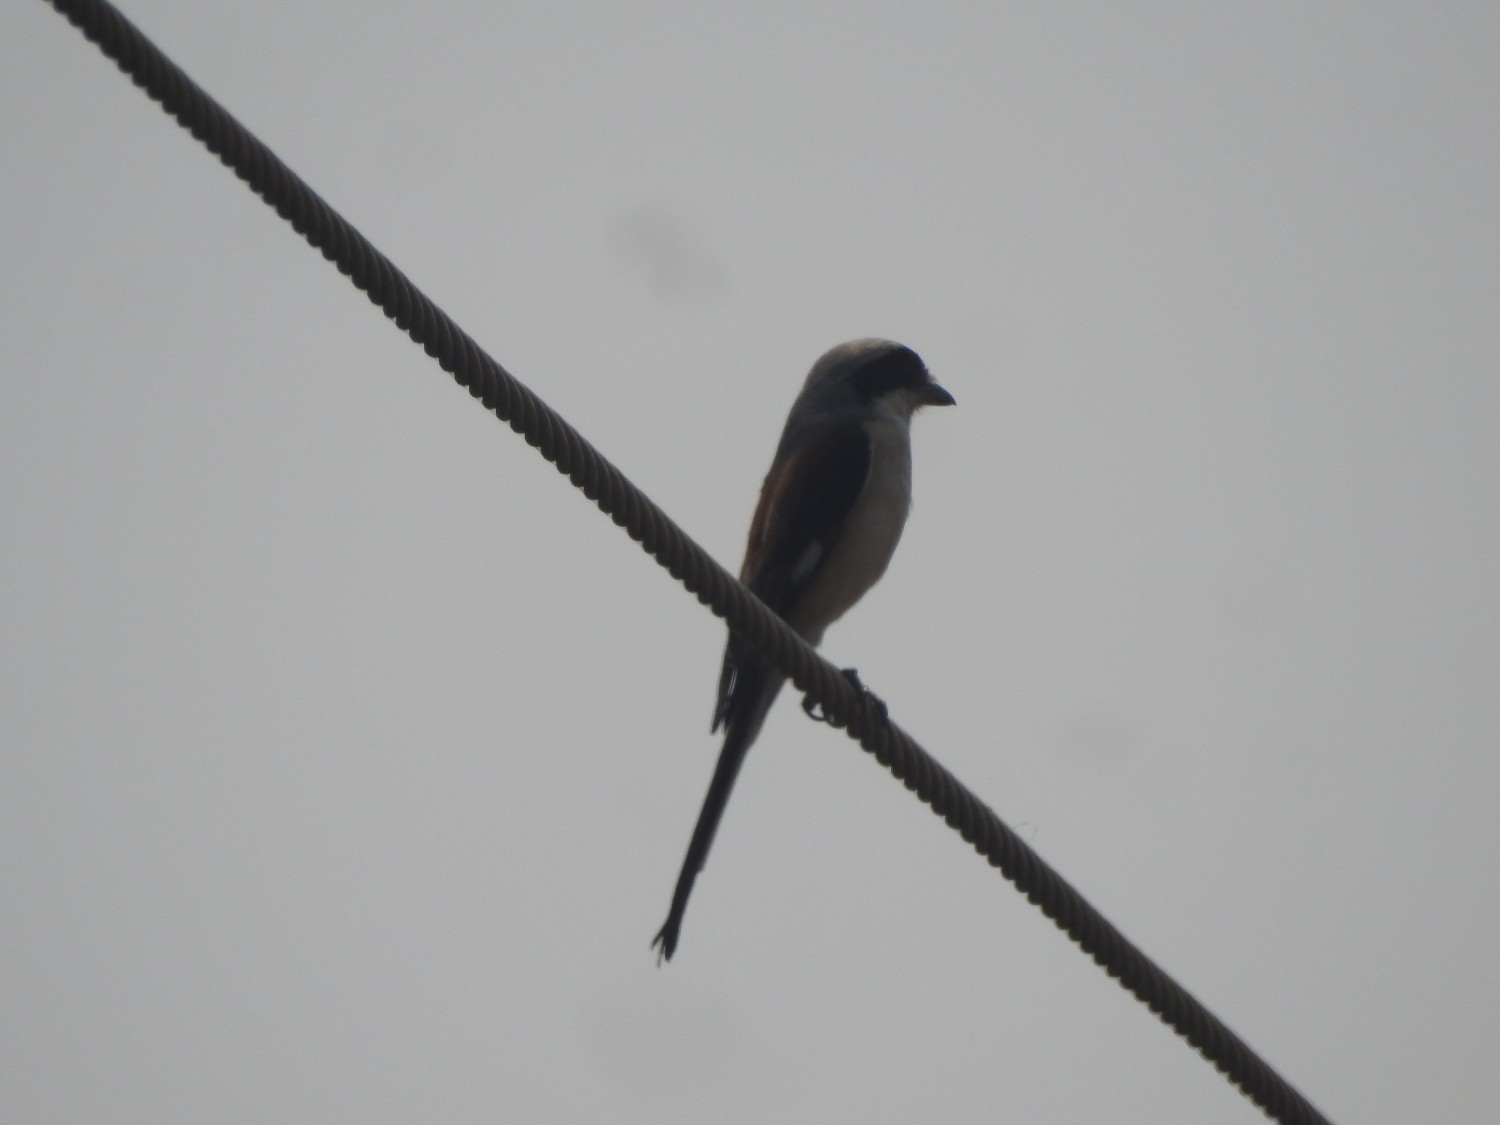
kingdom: Animalia
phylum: Chordata
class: Aves
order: Passeriformes
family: Laniidae
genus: Lanius
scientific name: Lanius vittatus
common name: Bay-backed shrike
